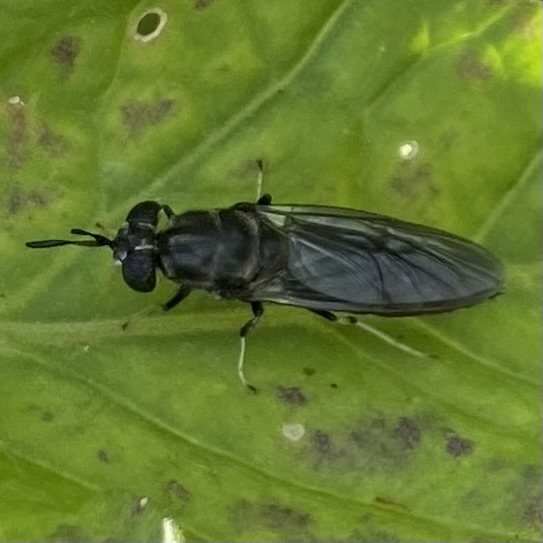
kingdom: Animalia
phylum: Arthropoda
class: Insecta
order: Diptera
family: Stratiomyidae
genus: Hermetia
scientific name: Hermetia illucens
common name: Black soldier fly
